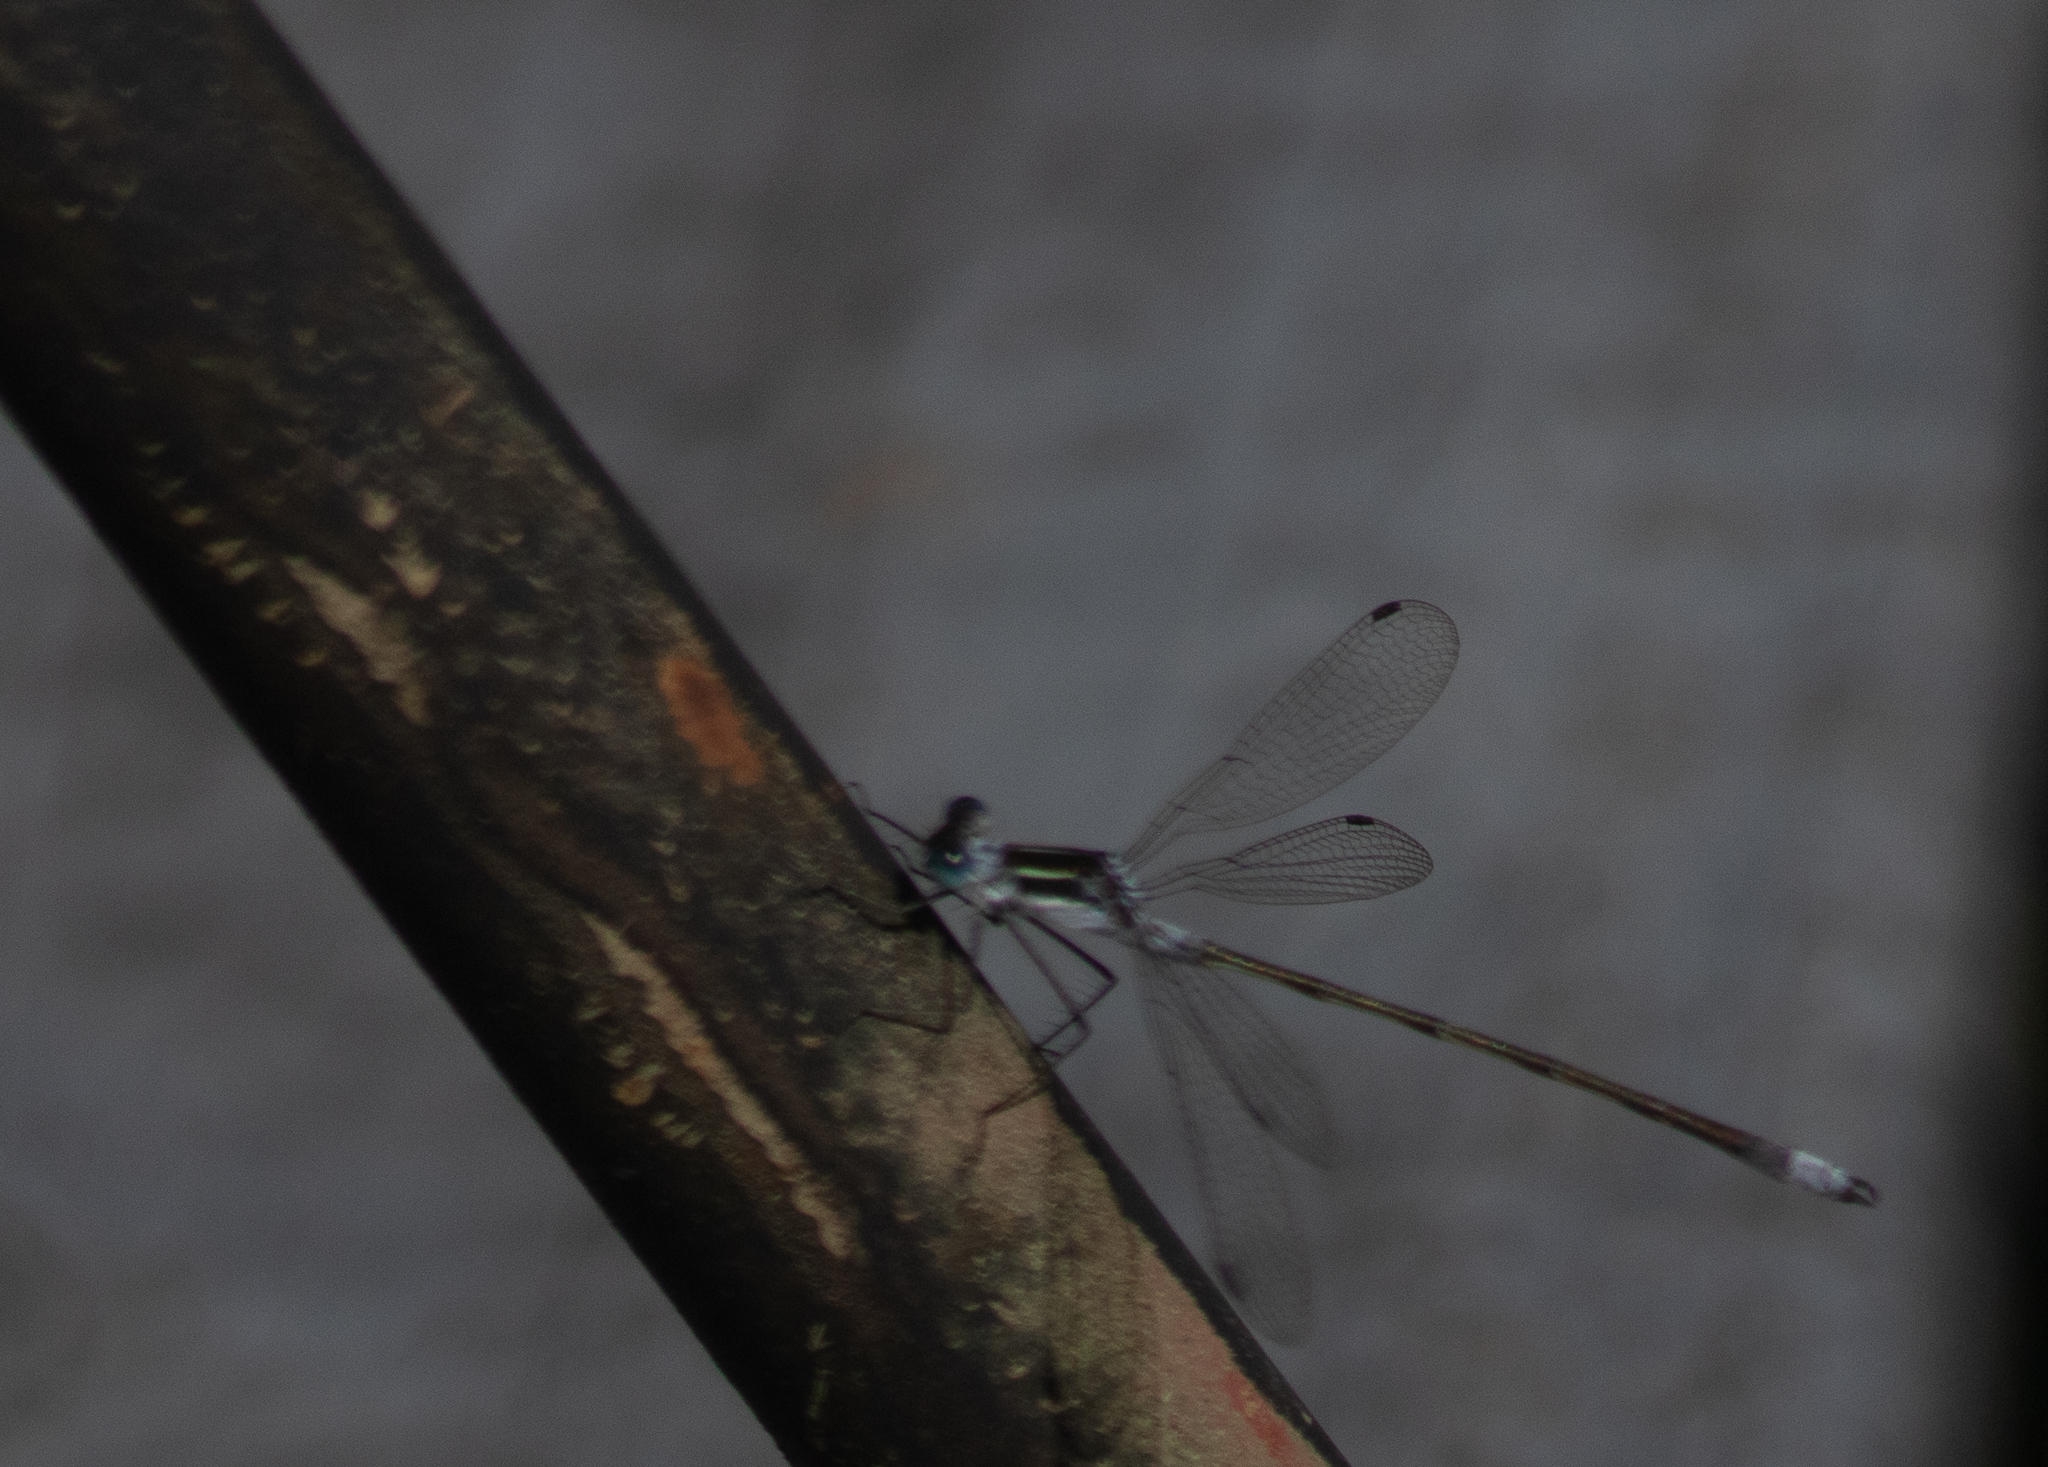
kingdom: Animalia
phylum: Arthropoda
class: Insecta
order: Odonata
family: Lestidae
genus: Lestes
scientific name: Lestes
